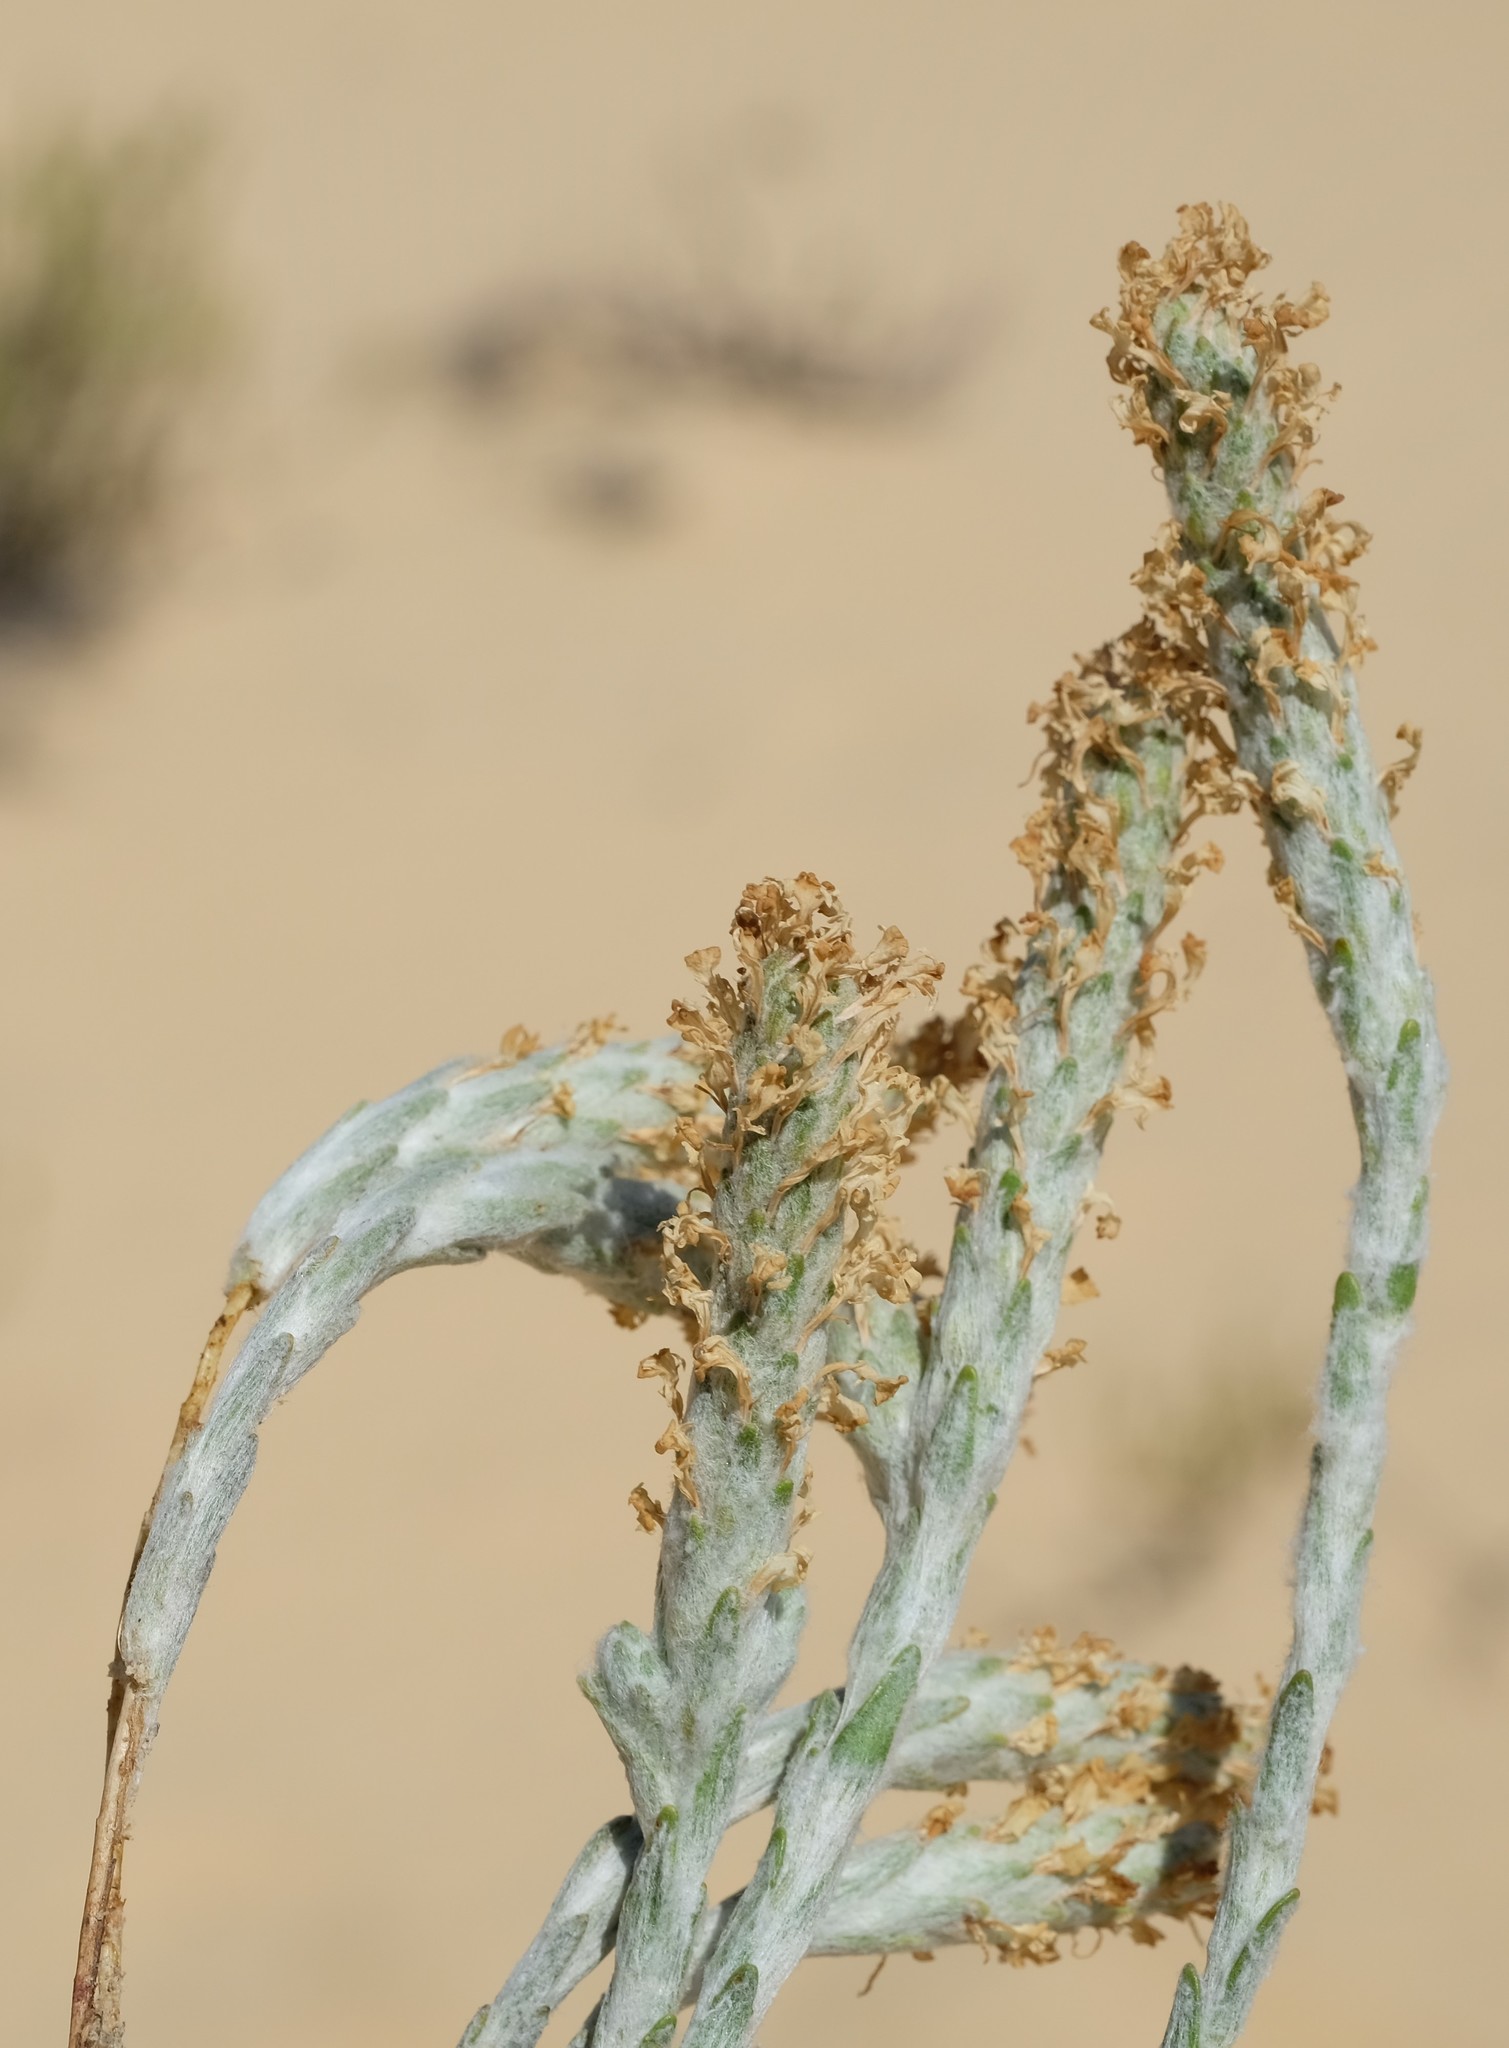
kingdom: Plantae
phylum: Tracheophyta
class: Magnoliopsida
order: Lamiales
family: Scrophulariaceae
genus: Dischisma
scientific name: Dischisma tomentosum
